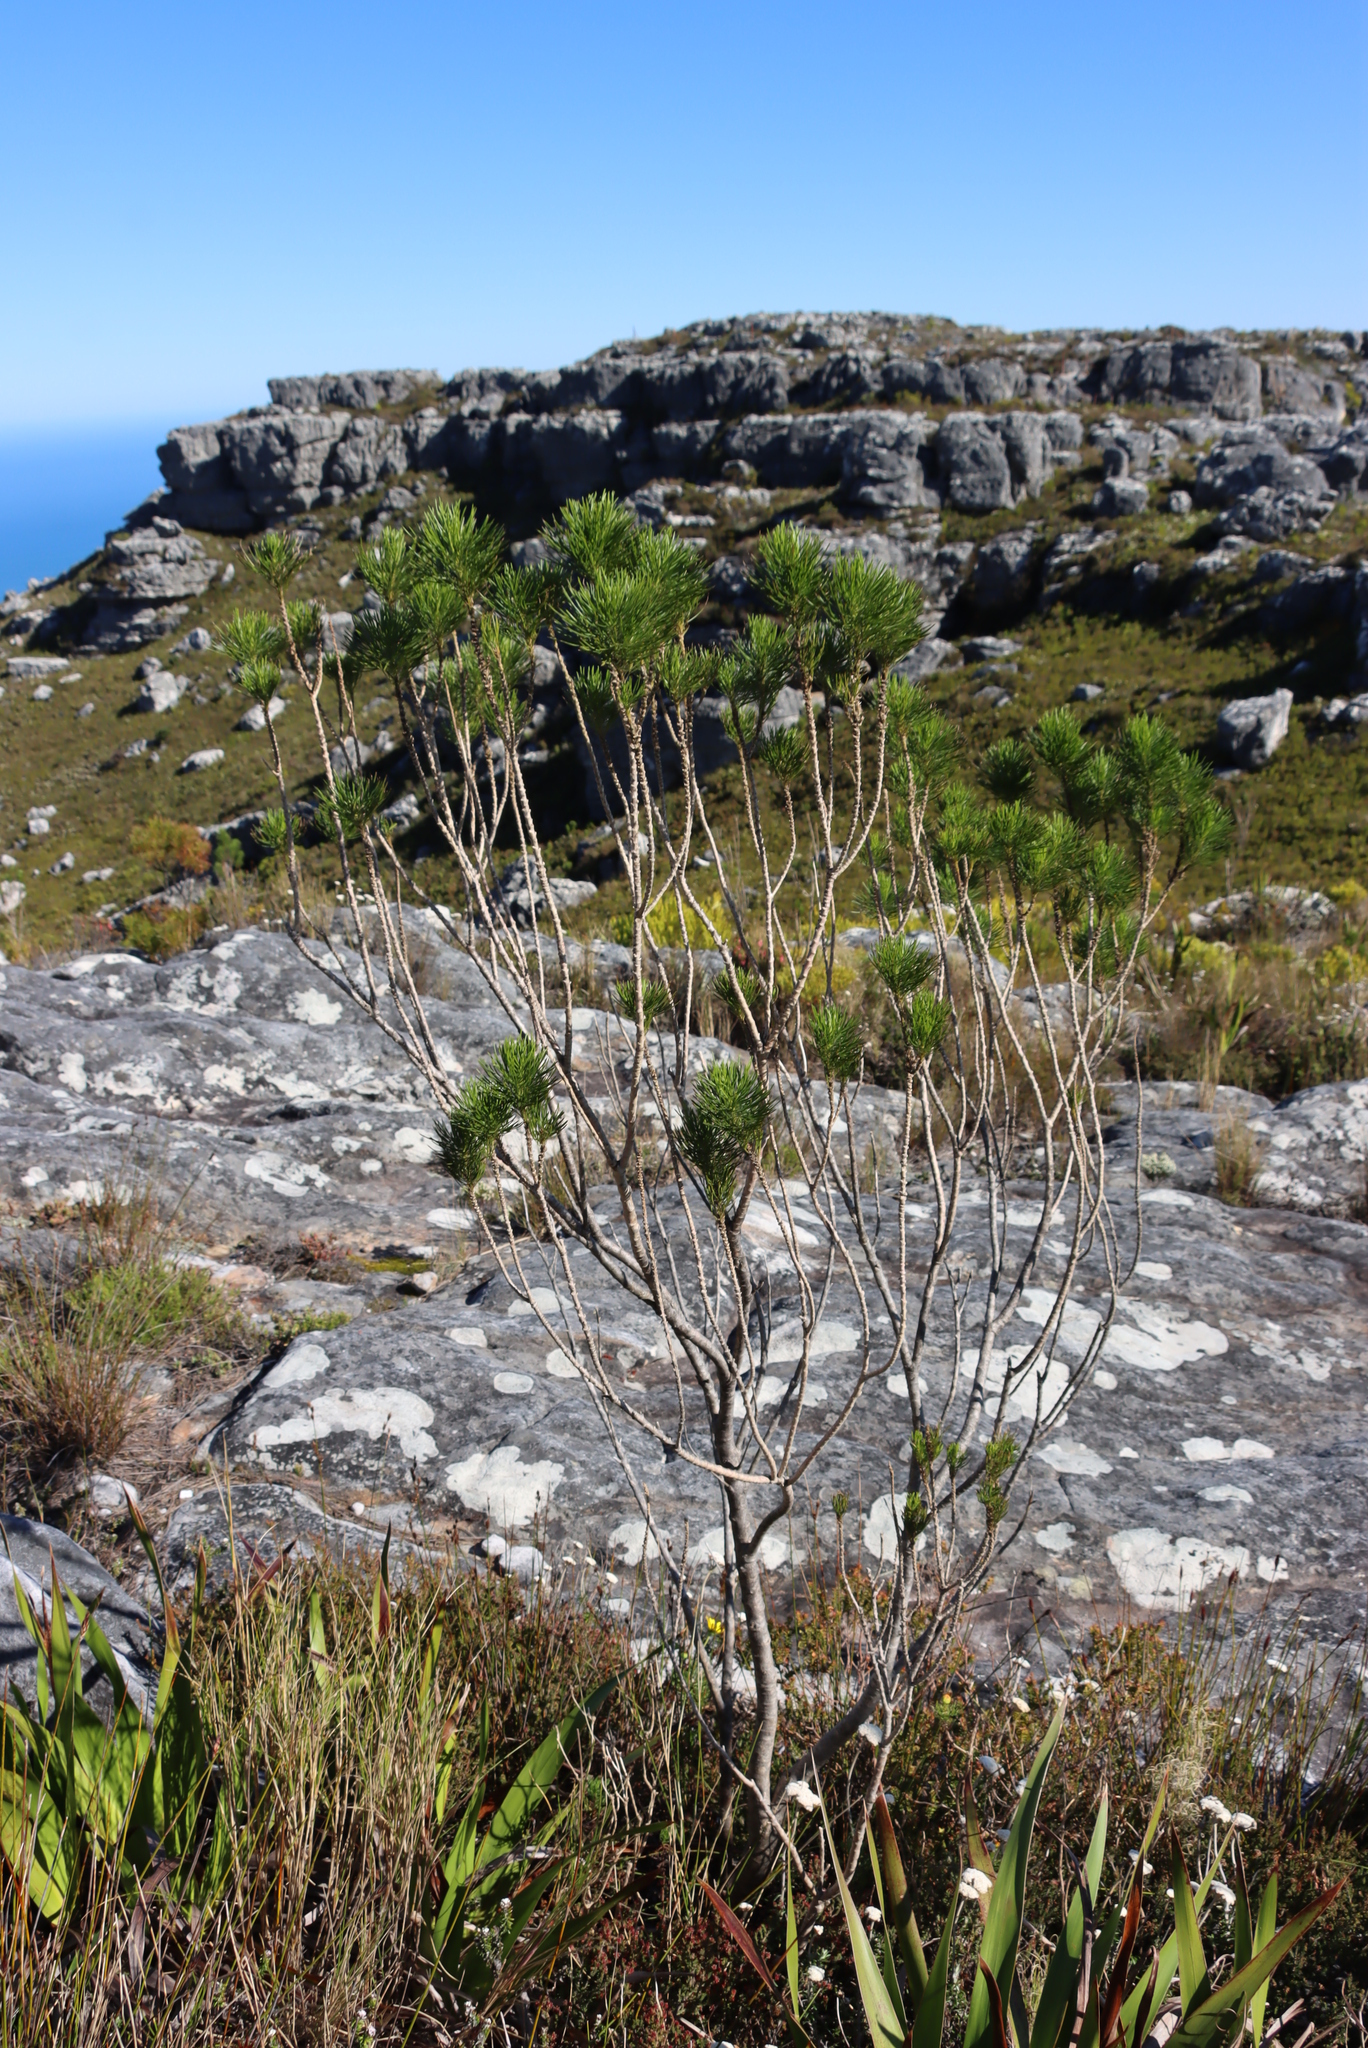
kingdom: Plantae
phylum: Tracheophyta
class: Magnoliopsida
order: Fabales
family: Fabaceae
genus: Psoralea
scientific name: Psoralea pinnata
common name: African scurfpea
